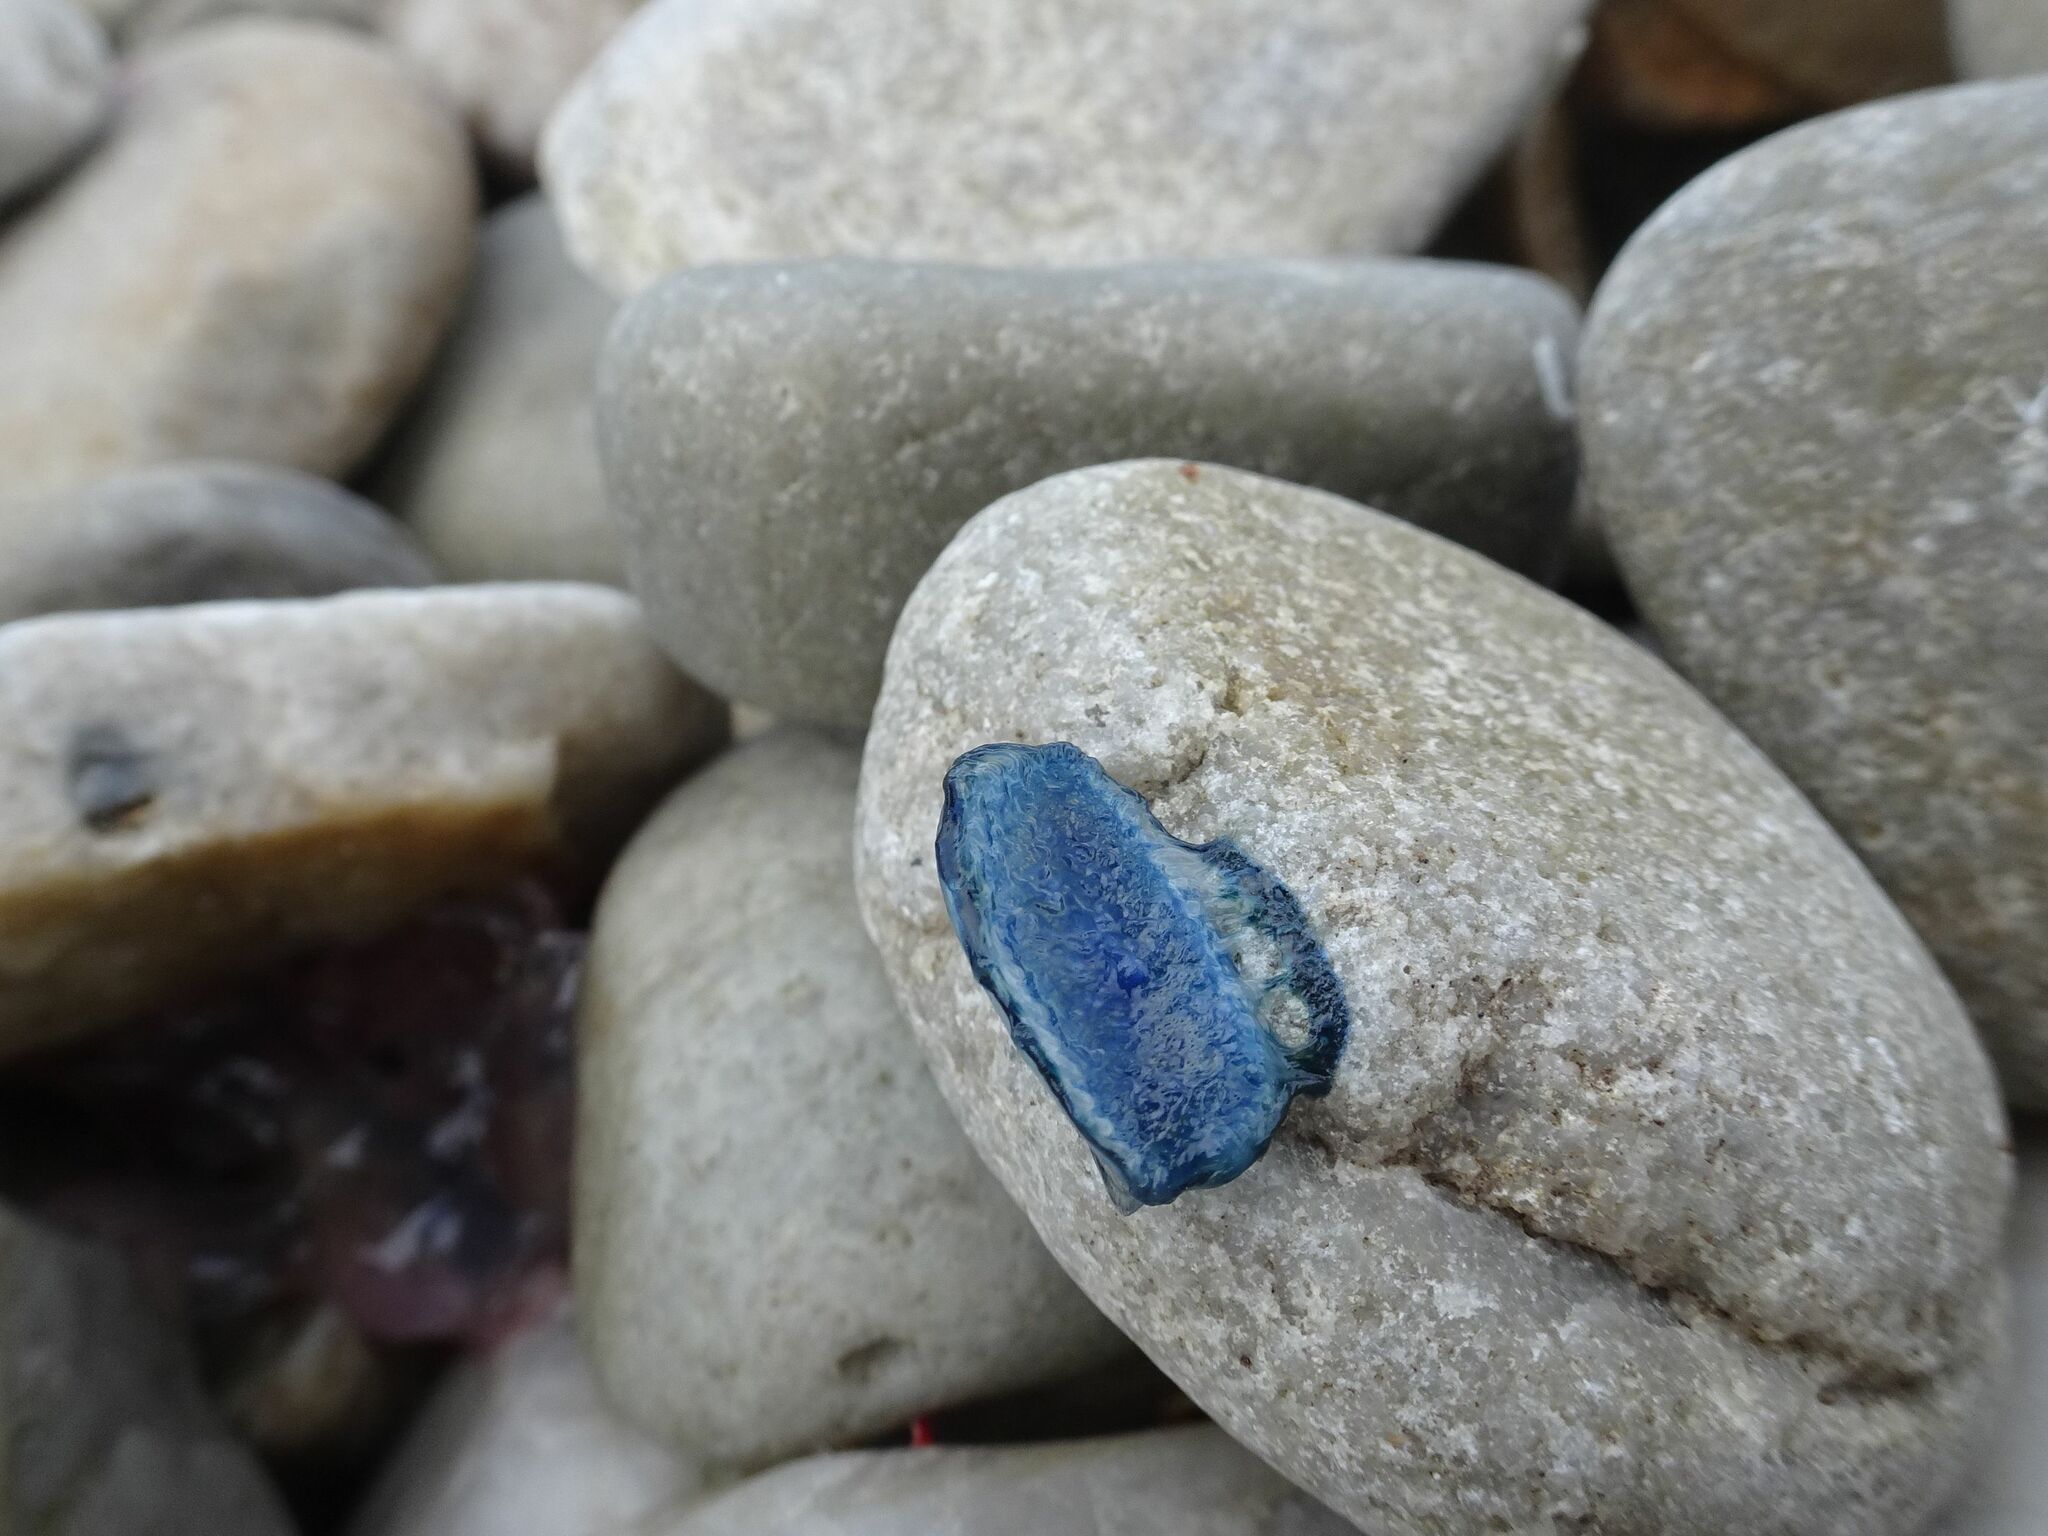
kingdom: Animalia
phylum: Cnidaria
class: Hydrozoa
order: Anthoathecata
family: Porpitidae
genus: Velella
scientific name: Velella velella
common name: By-the-wind-sailor
